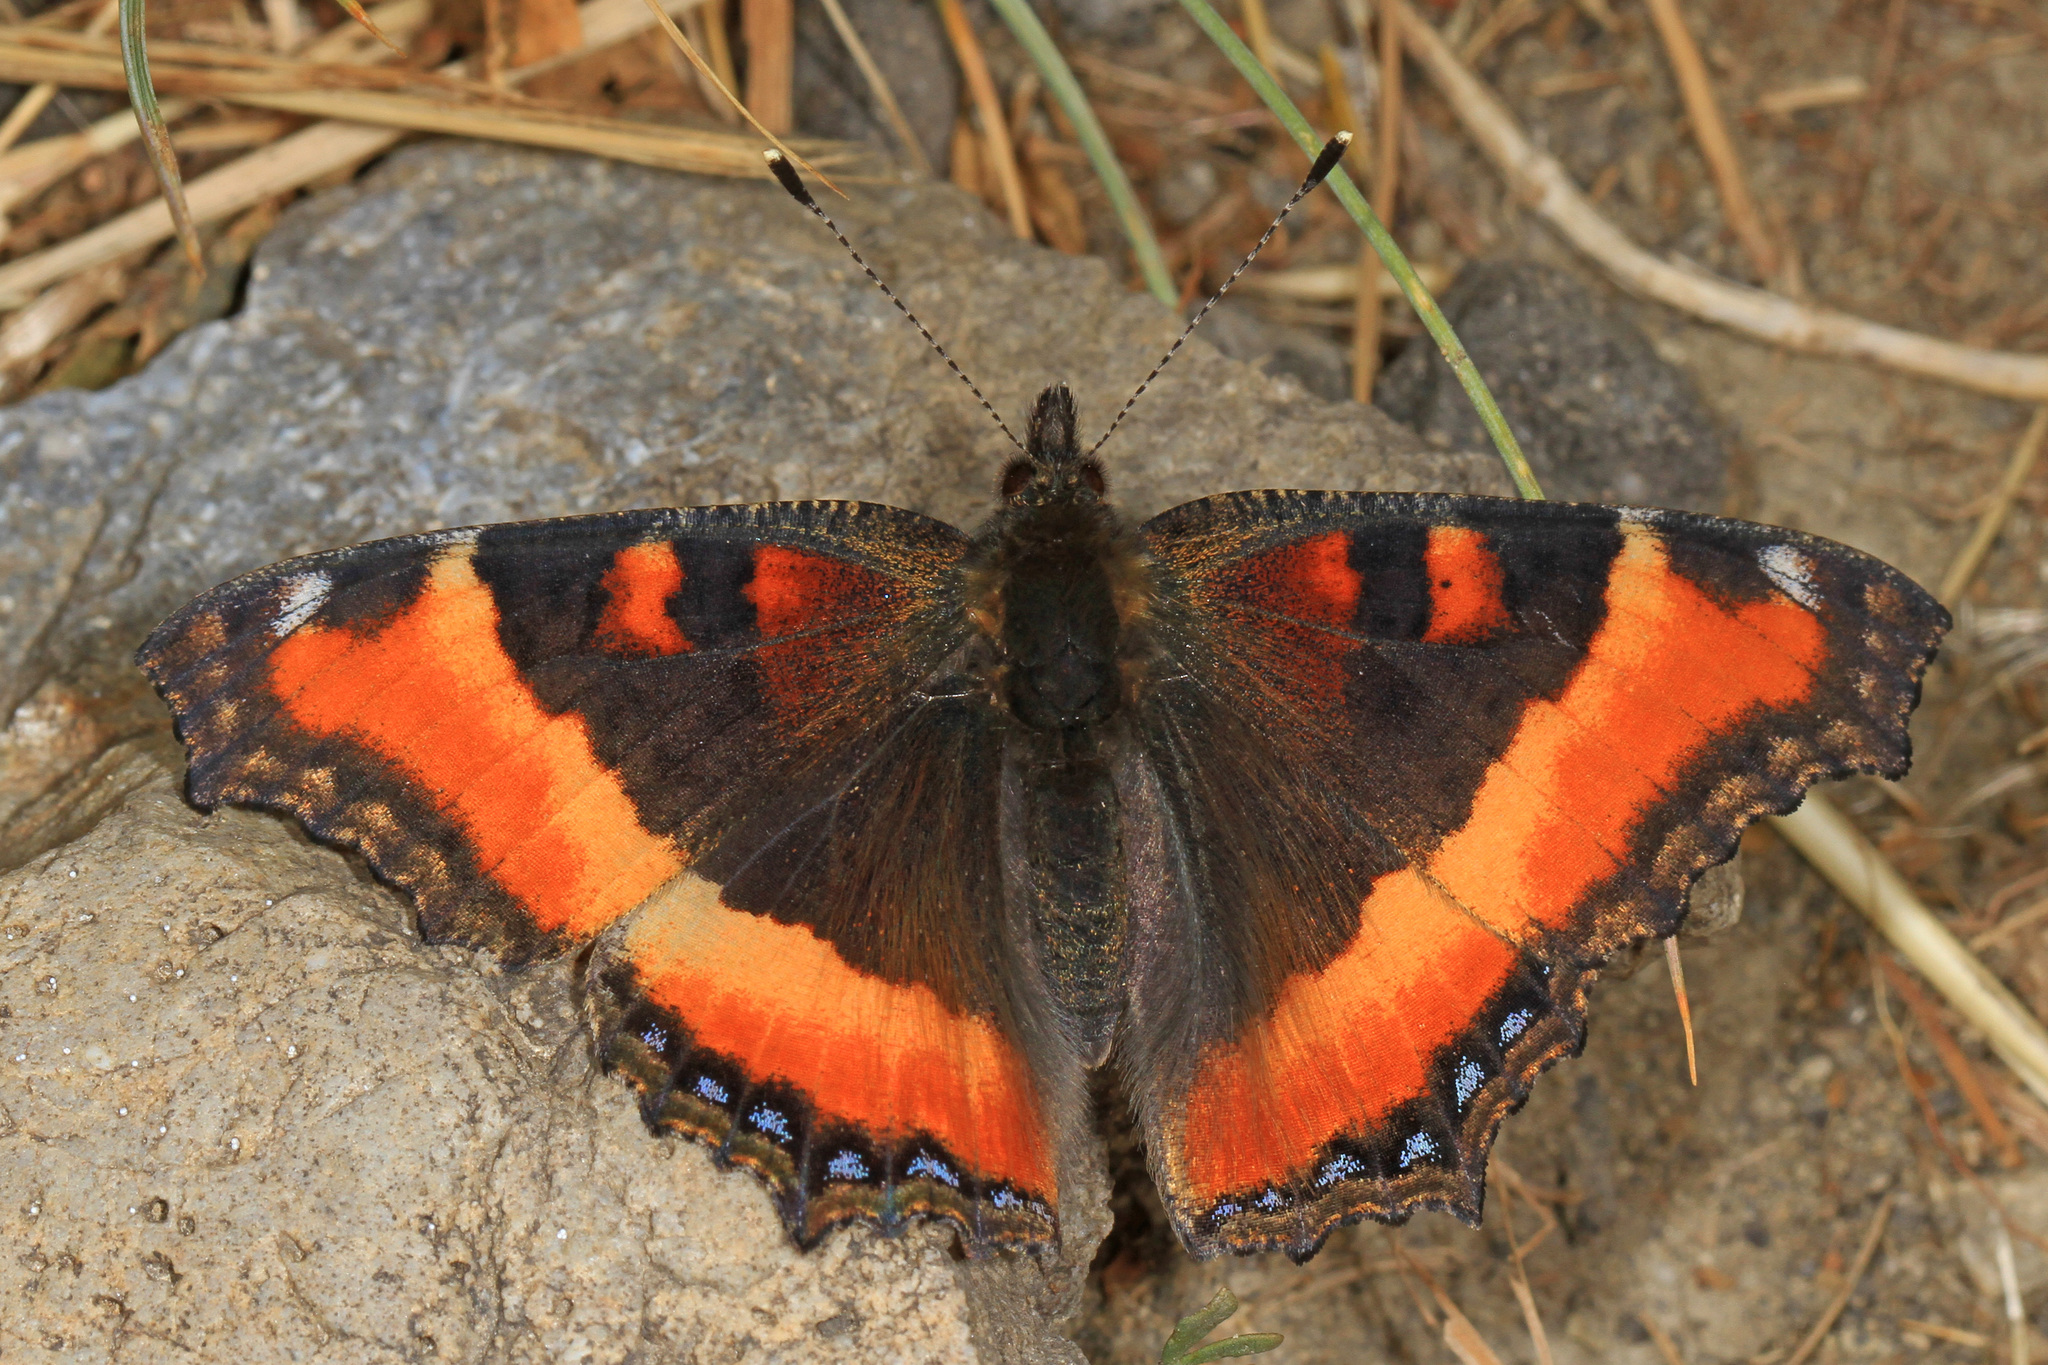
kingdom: Animalia
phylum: Arthropoda
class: Insecta
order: Lepidoptera
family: Nymphalidae
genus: Aglais
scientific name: Aglais milberti
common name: Milbert's tortoiseshell
